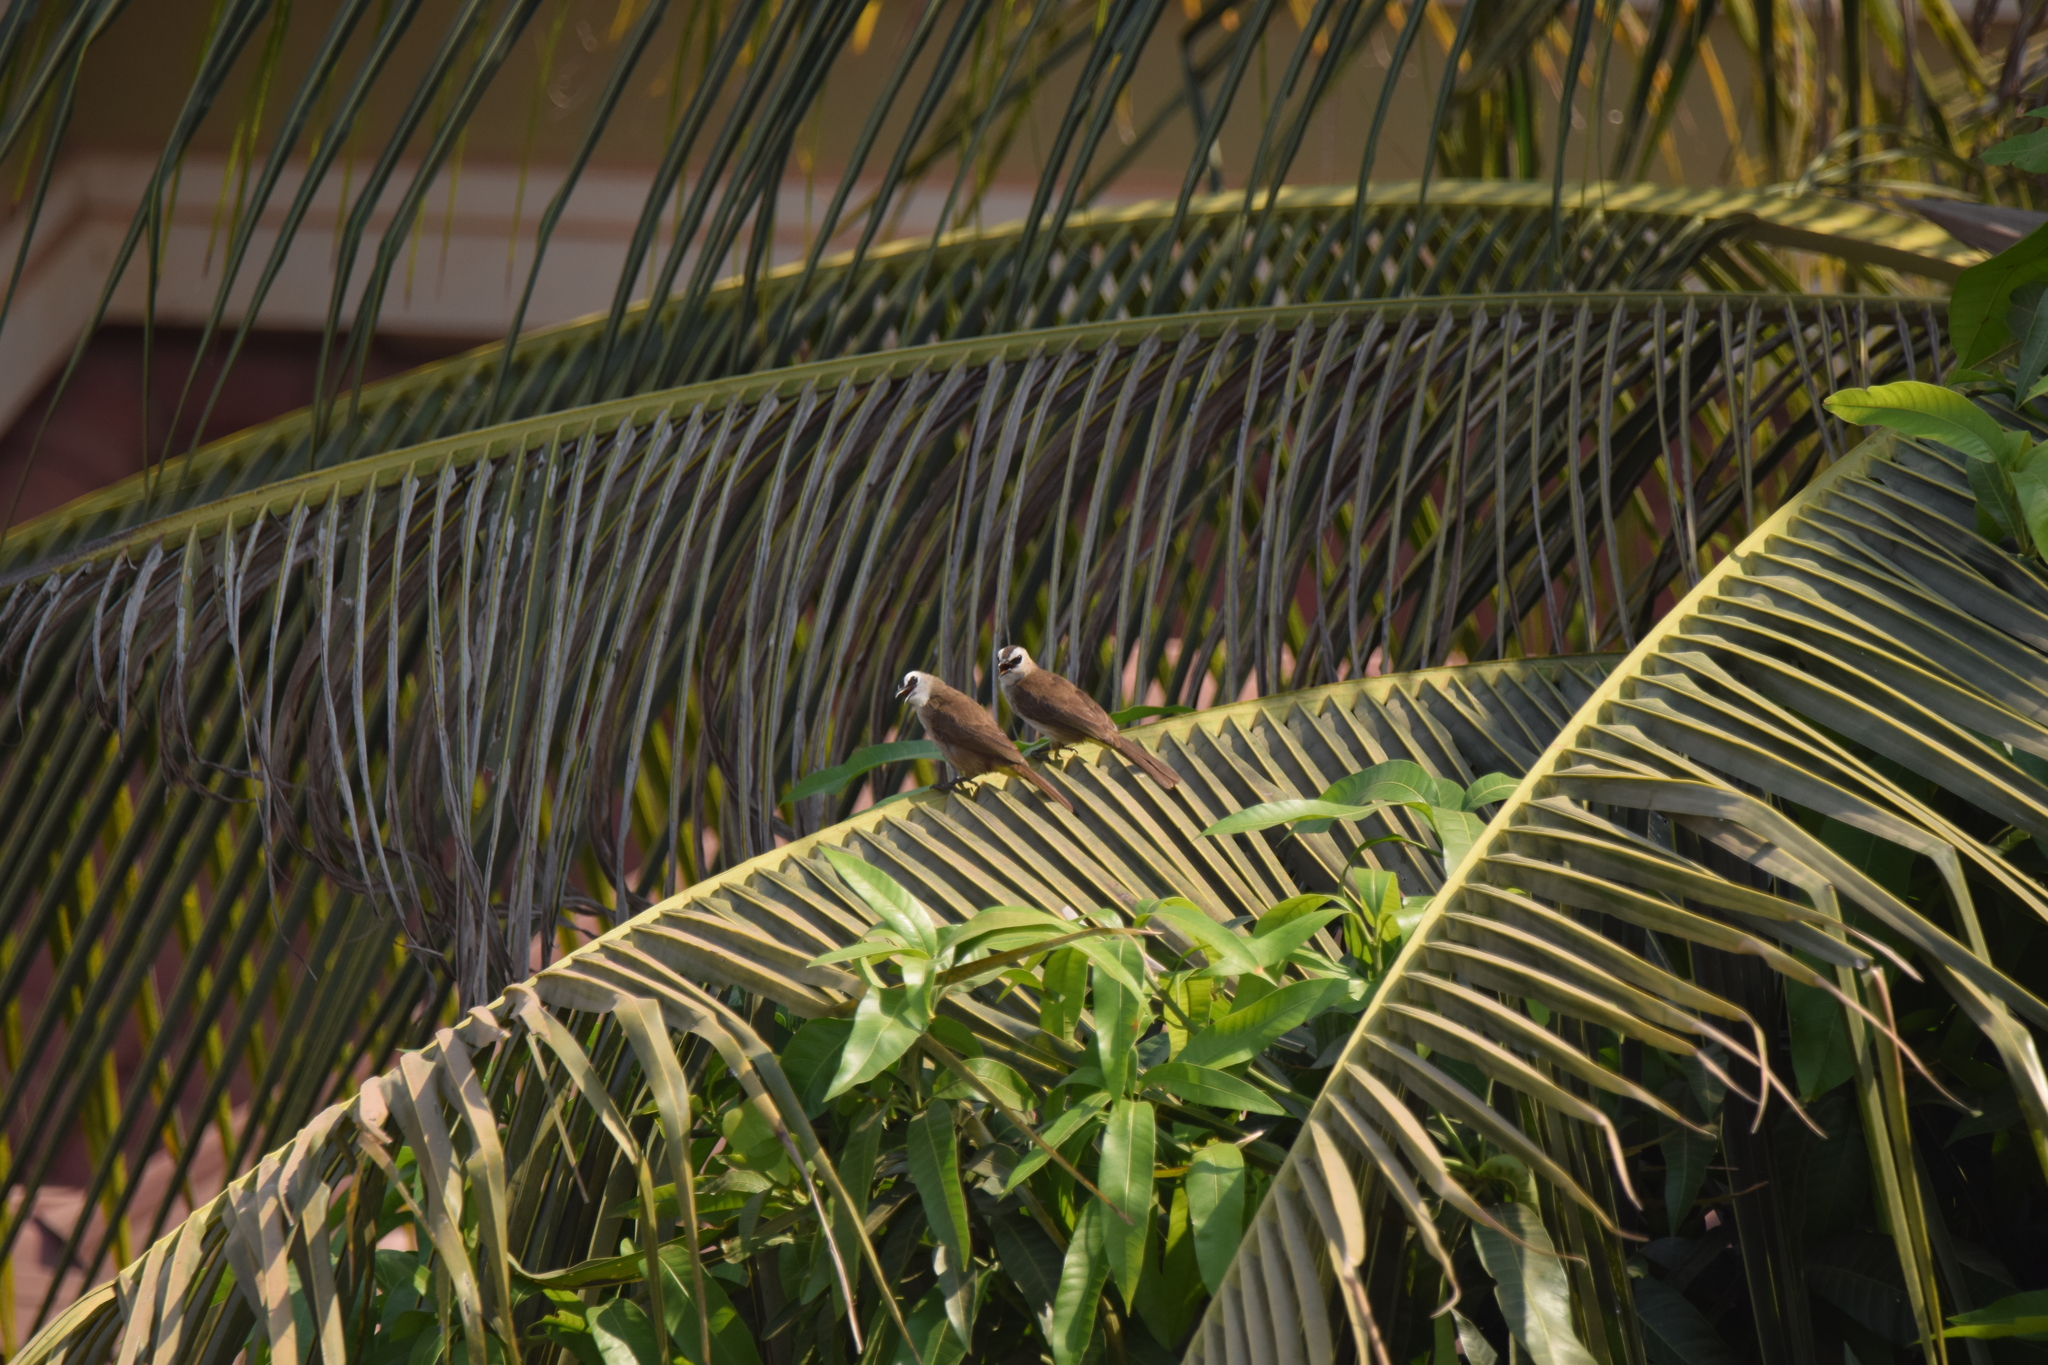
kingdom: Animalia
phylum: Chordata
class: Aves
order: Passeriformes
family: Pycnonotidae
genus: Pycnonotus
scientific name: Pycnonotus goiavier
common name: Yellow-vented bulbul
